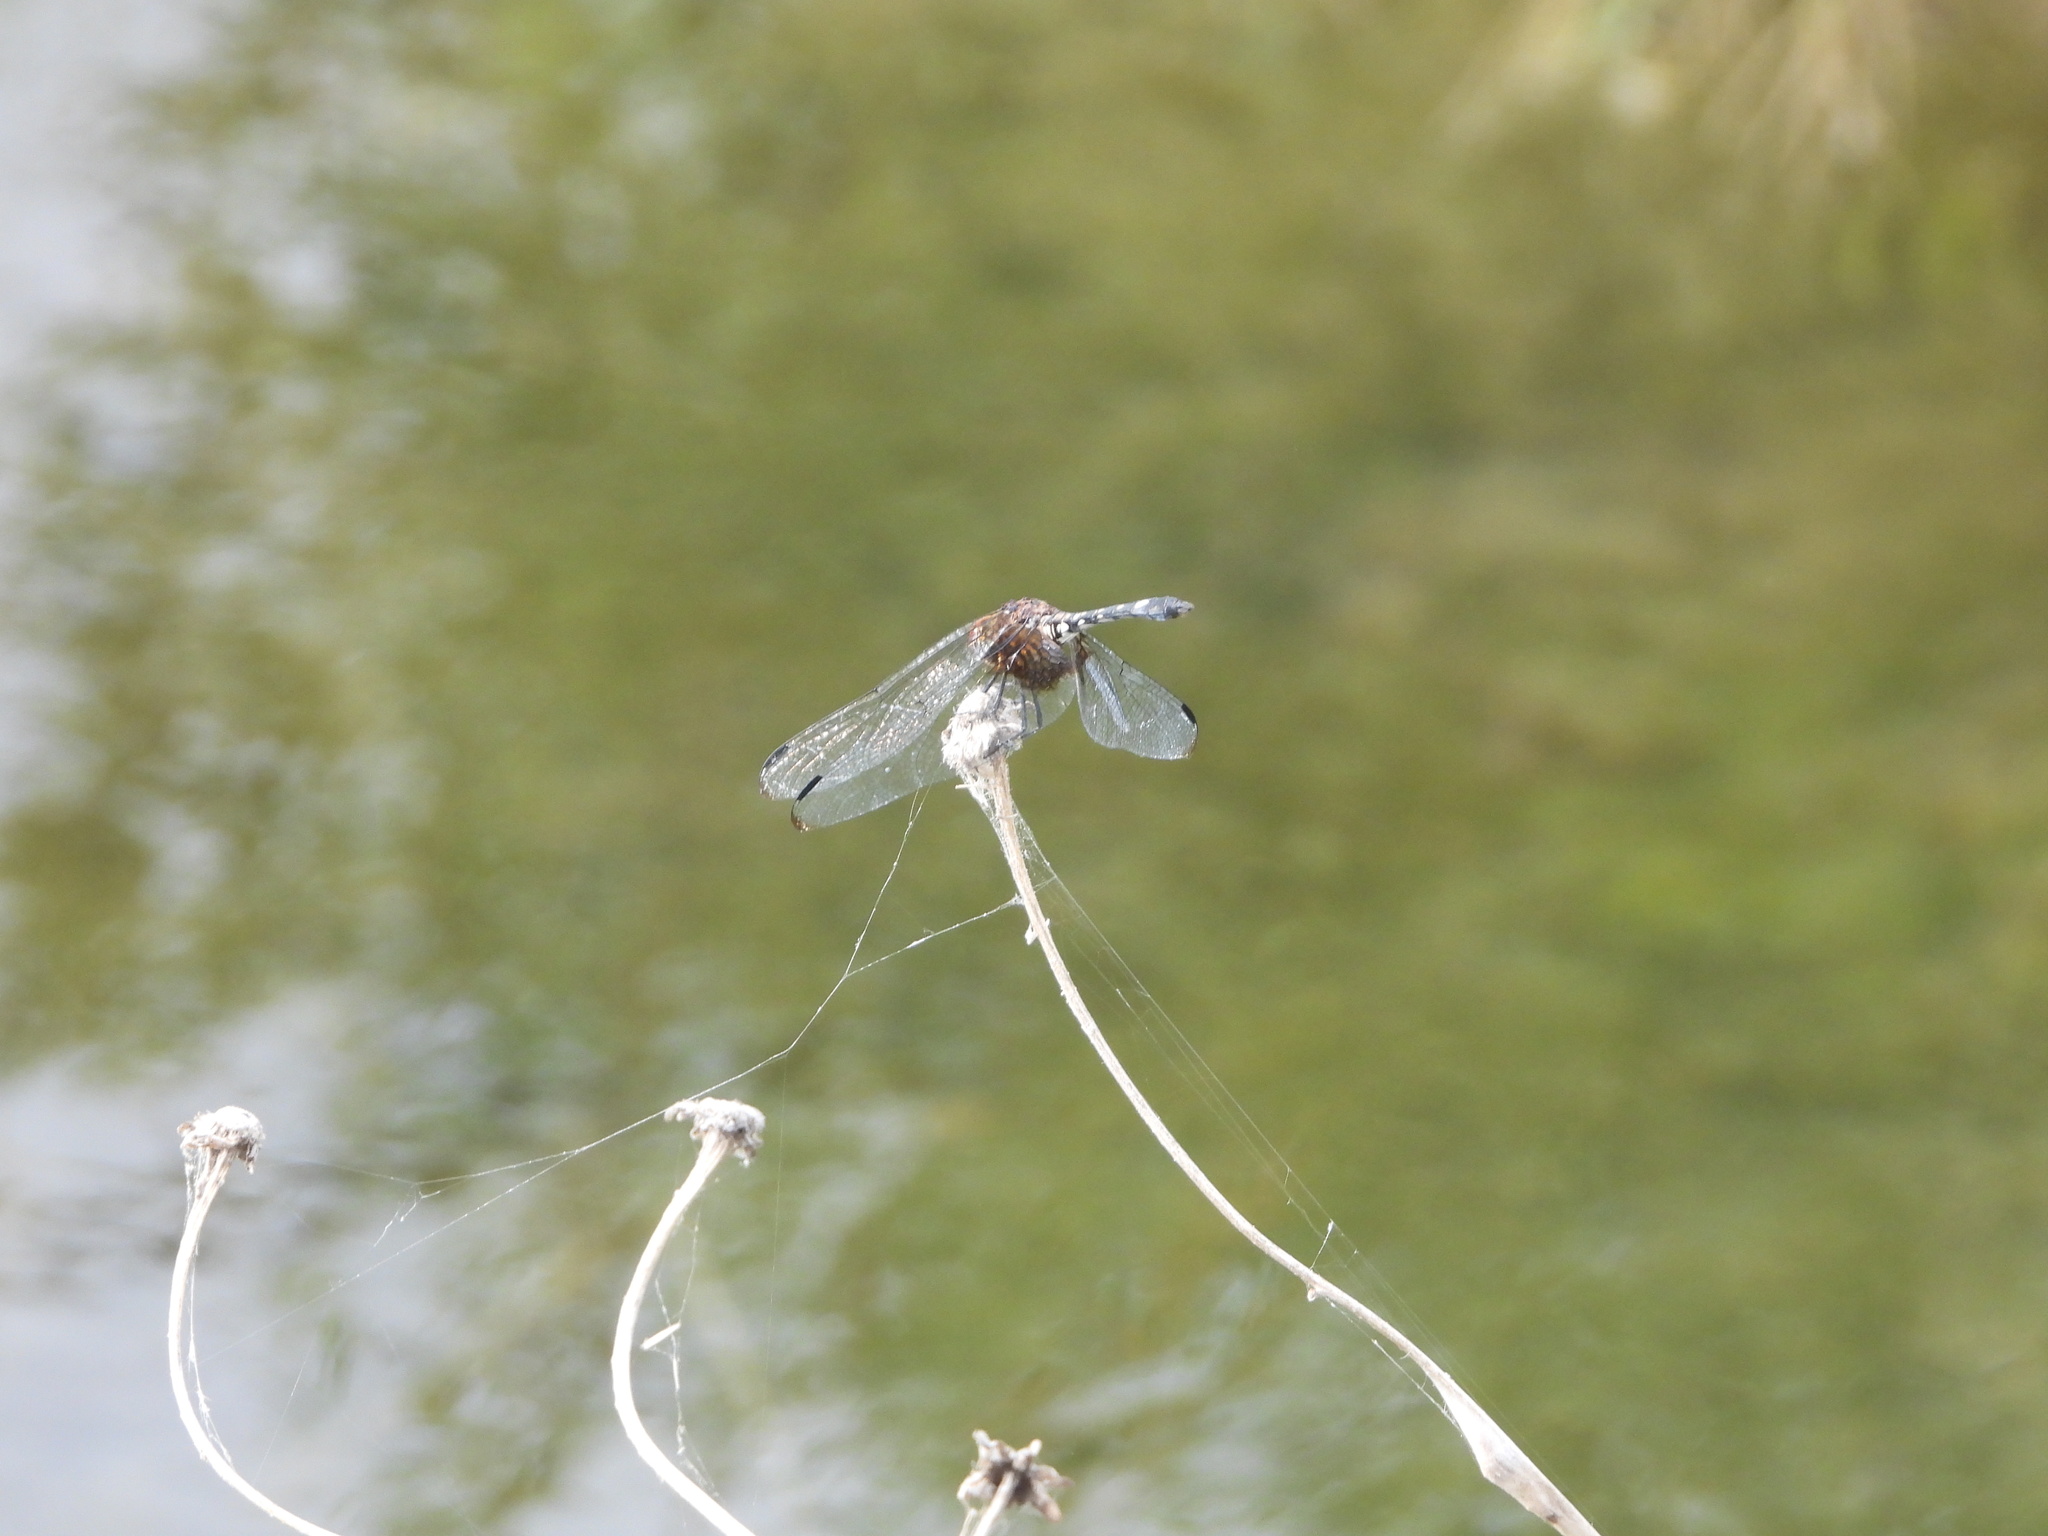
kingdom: Animalia
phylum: Arthropoda
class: Insecta
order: Odonata
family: Libellulidae
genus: Dythemis
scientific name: Dythemis fugax
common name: Checkered setwing
